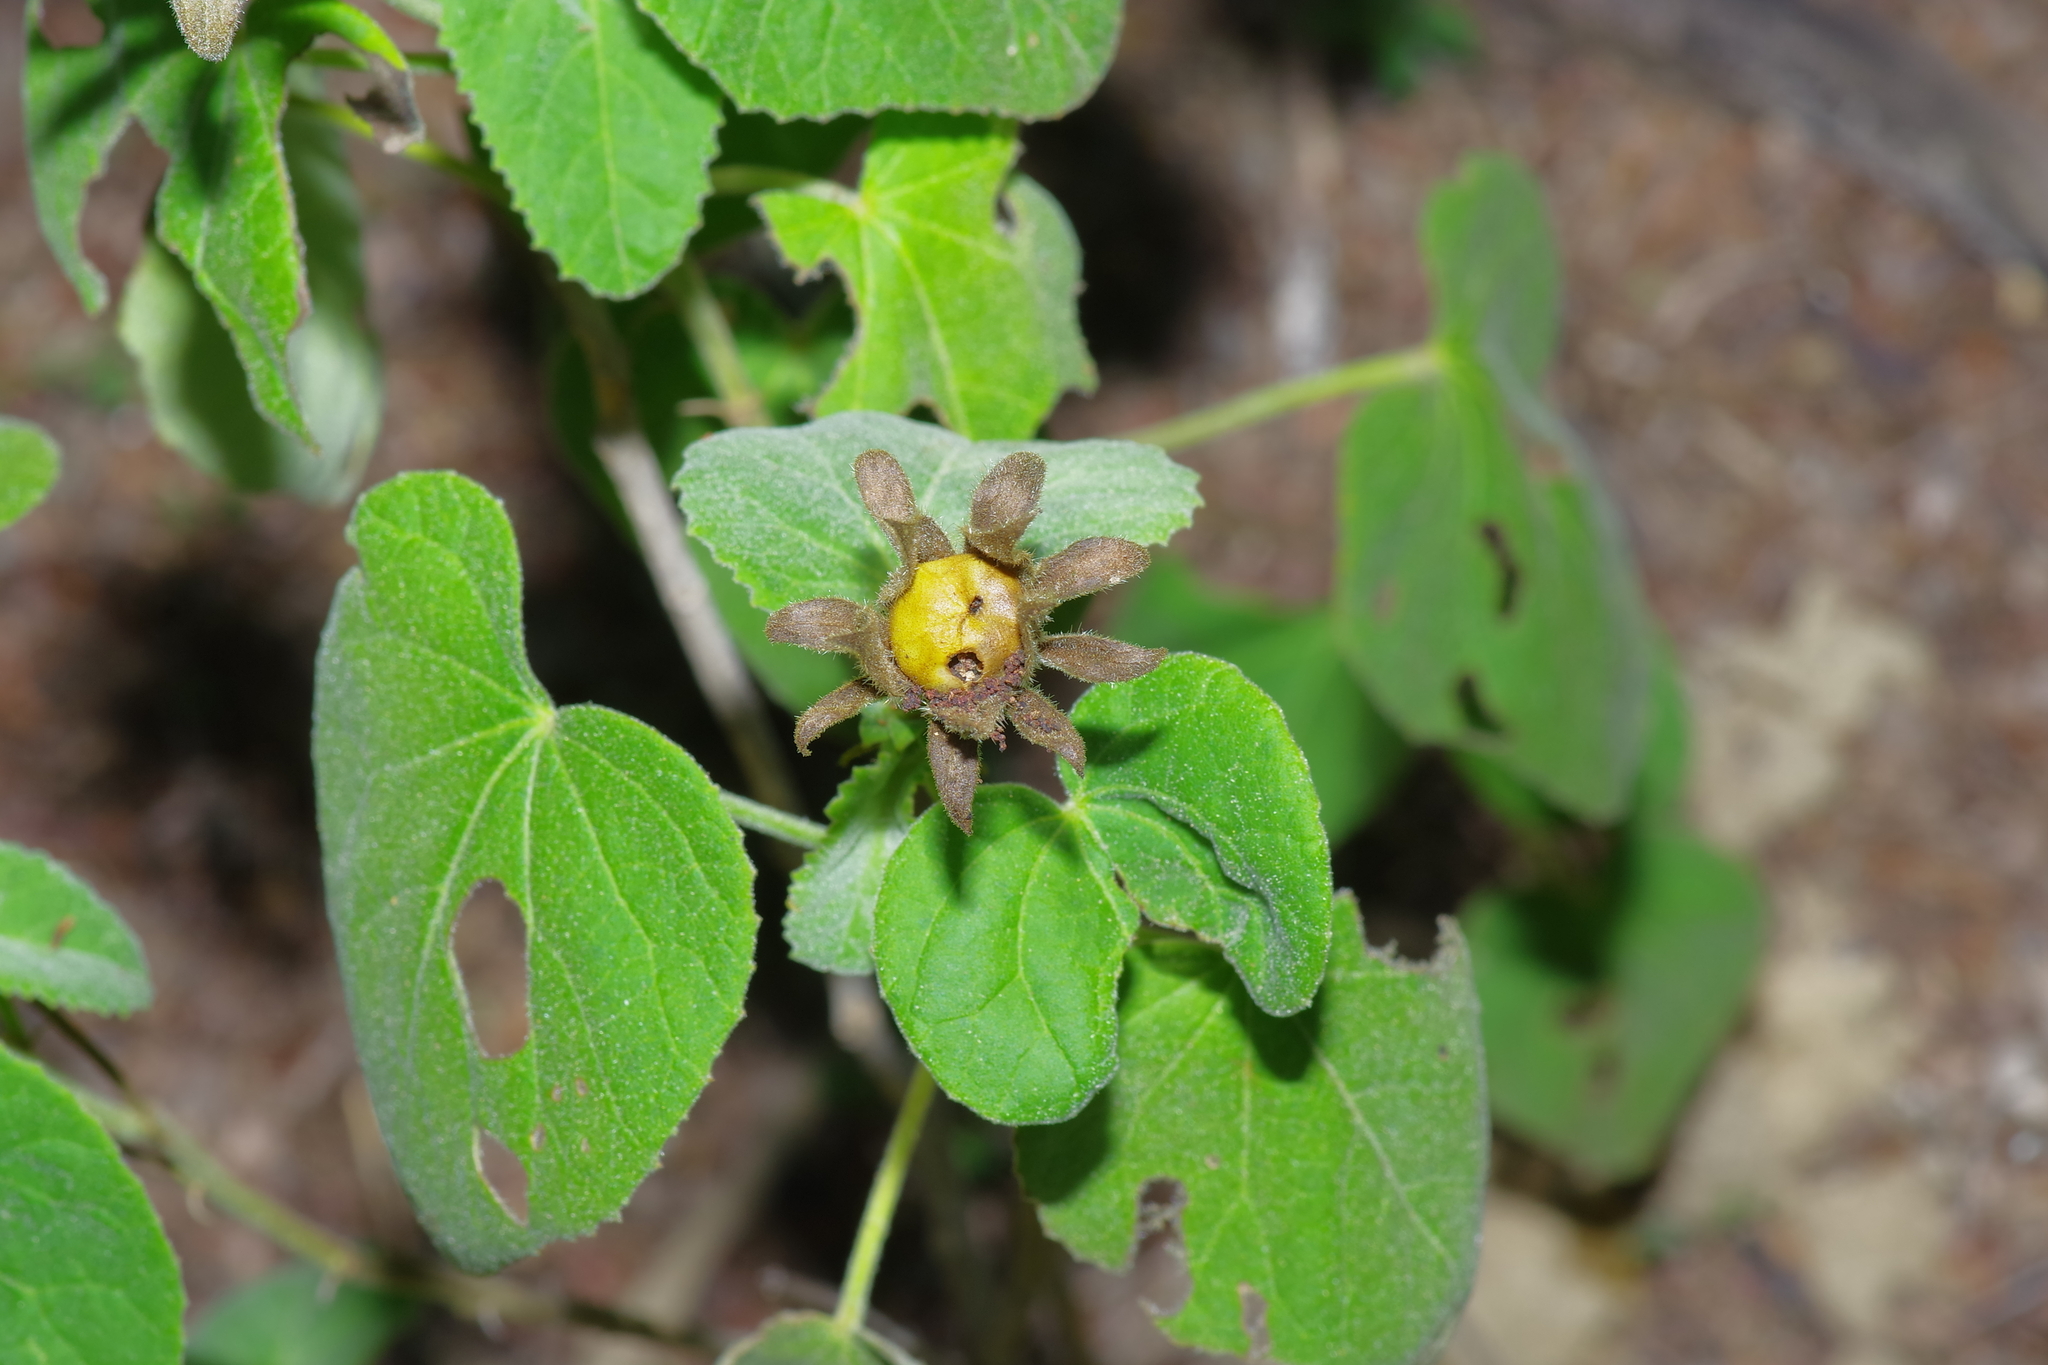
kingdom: Plantae
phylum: Tracheophyta
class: Magnoliopsida
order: Malvales
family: Malvaceae
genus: Hibiscus
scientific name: Hibiscus martianus
